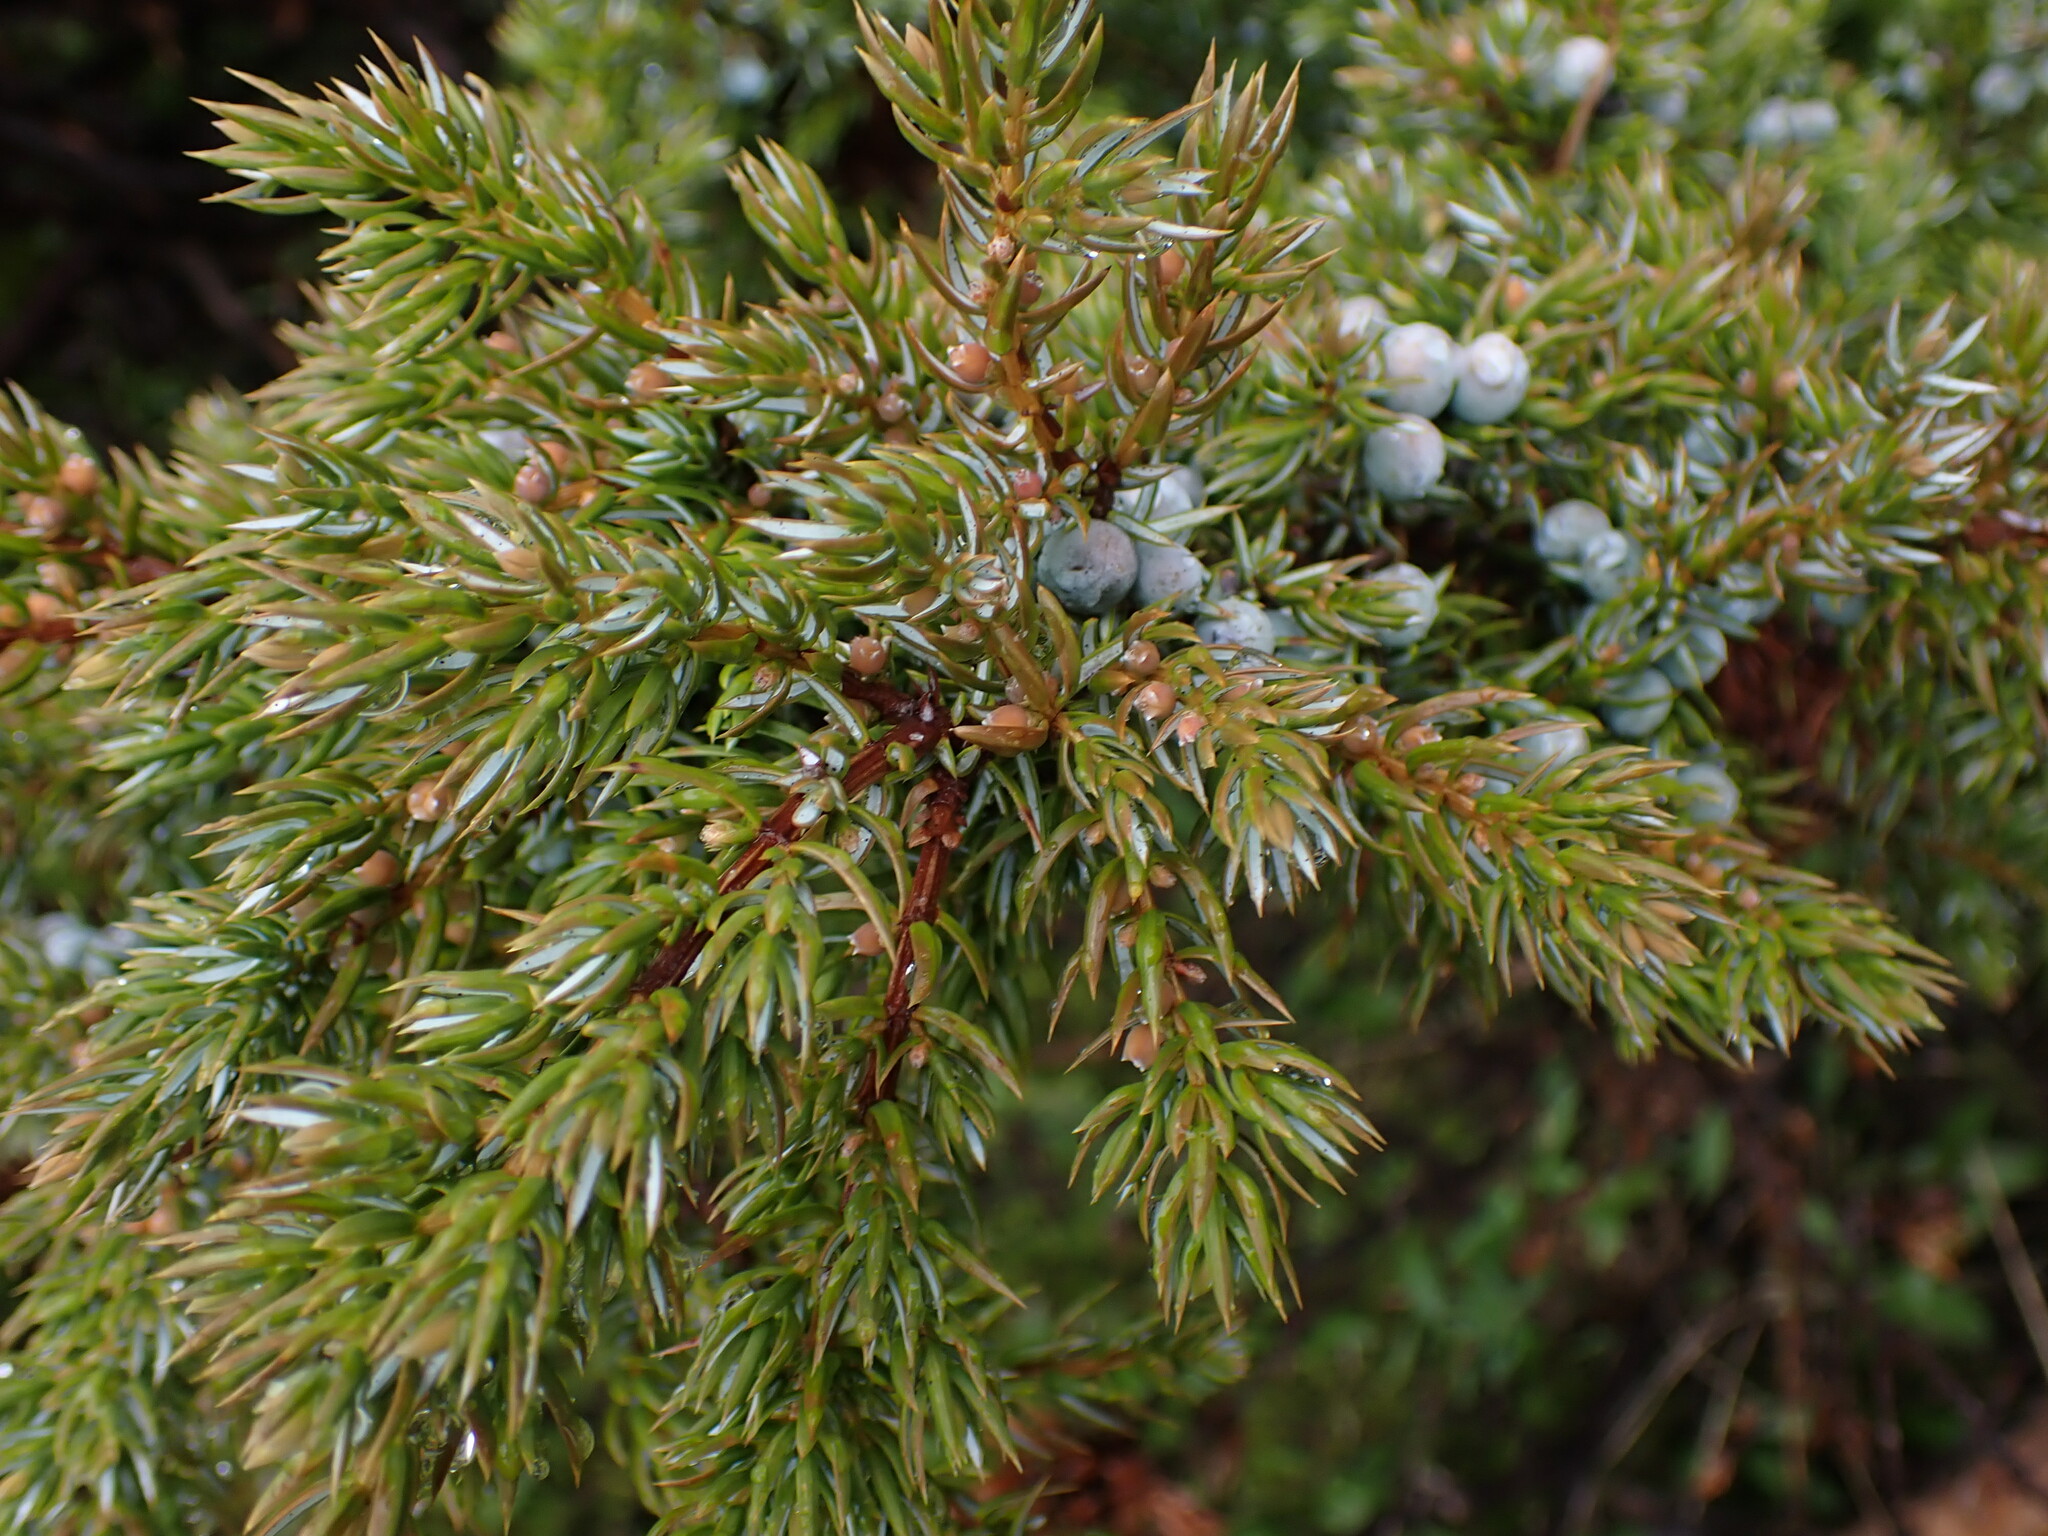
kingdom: Plantae
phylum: Tracheophyta
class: Pinopsida
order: Pinales
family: Cupressaceae
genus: Juniperus
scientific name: Juniperus communis
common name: Common juniper
